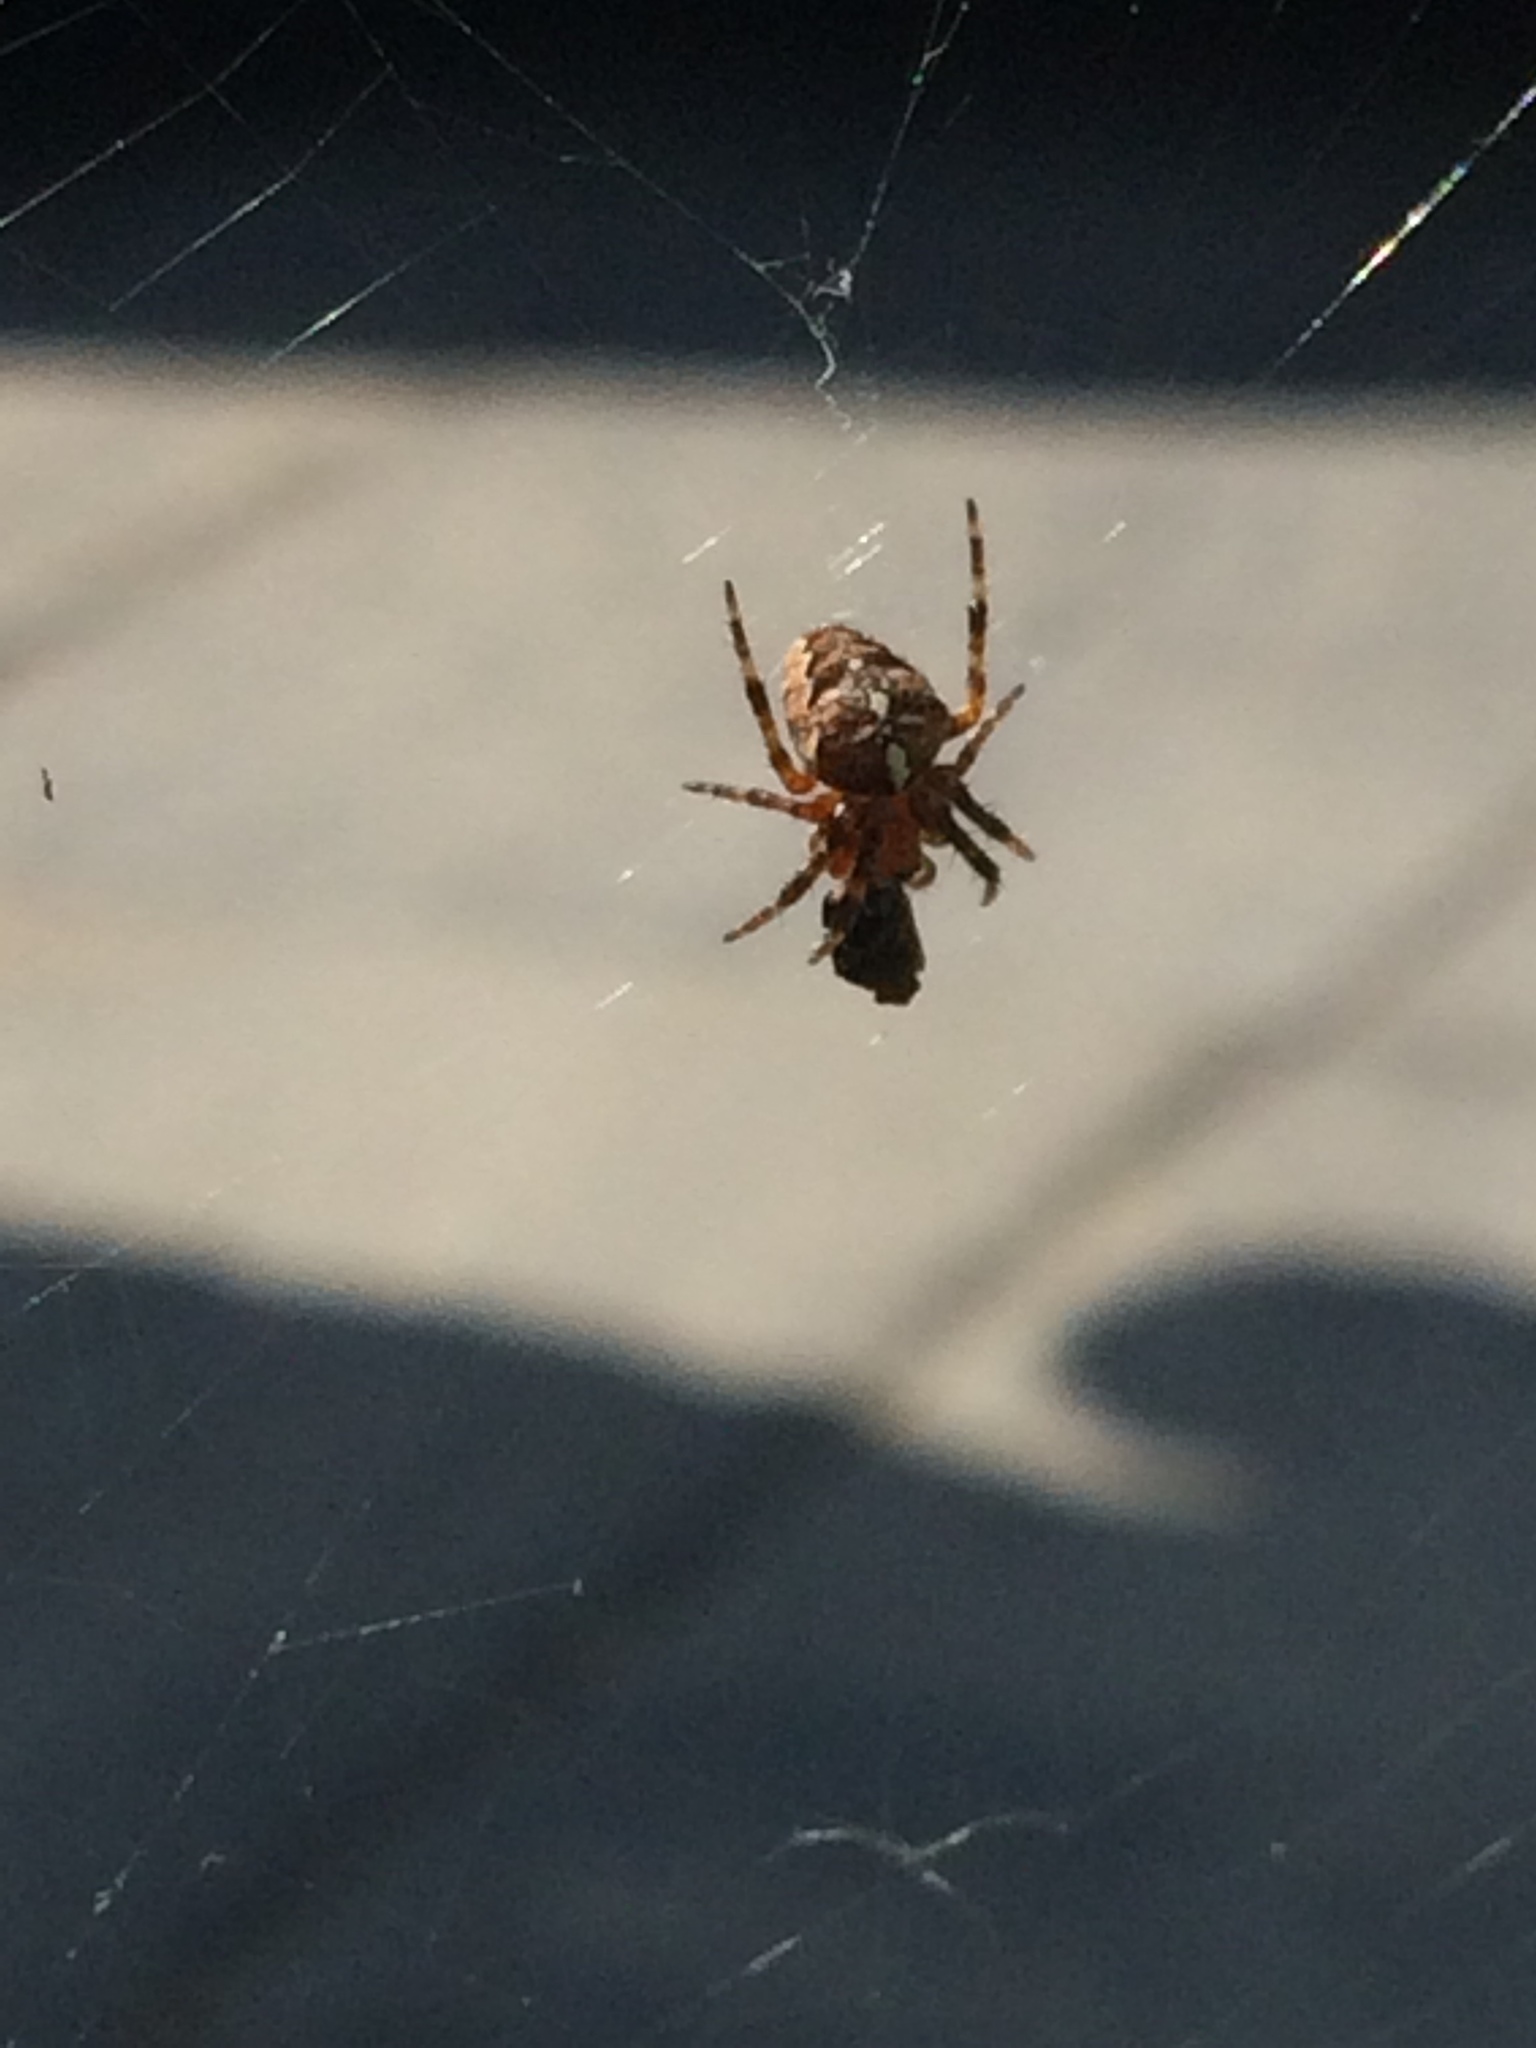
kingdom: Animalia
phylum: Arthropoda
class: Arachnida
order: Araneae
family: Araneidae
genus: Araneus
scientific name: Araneus diadematus
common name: Cross orbweaver
